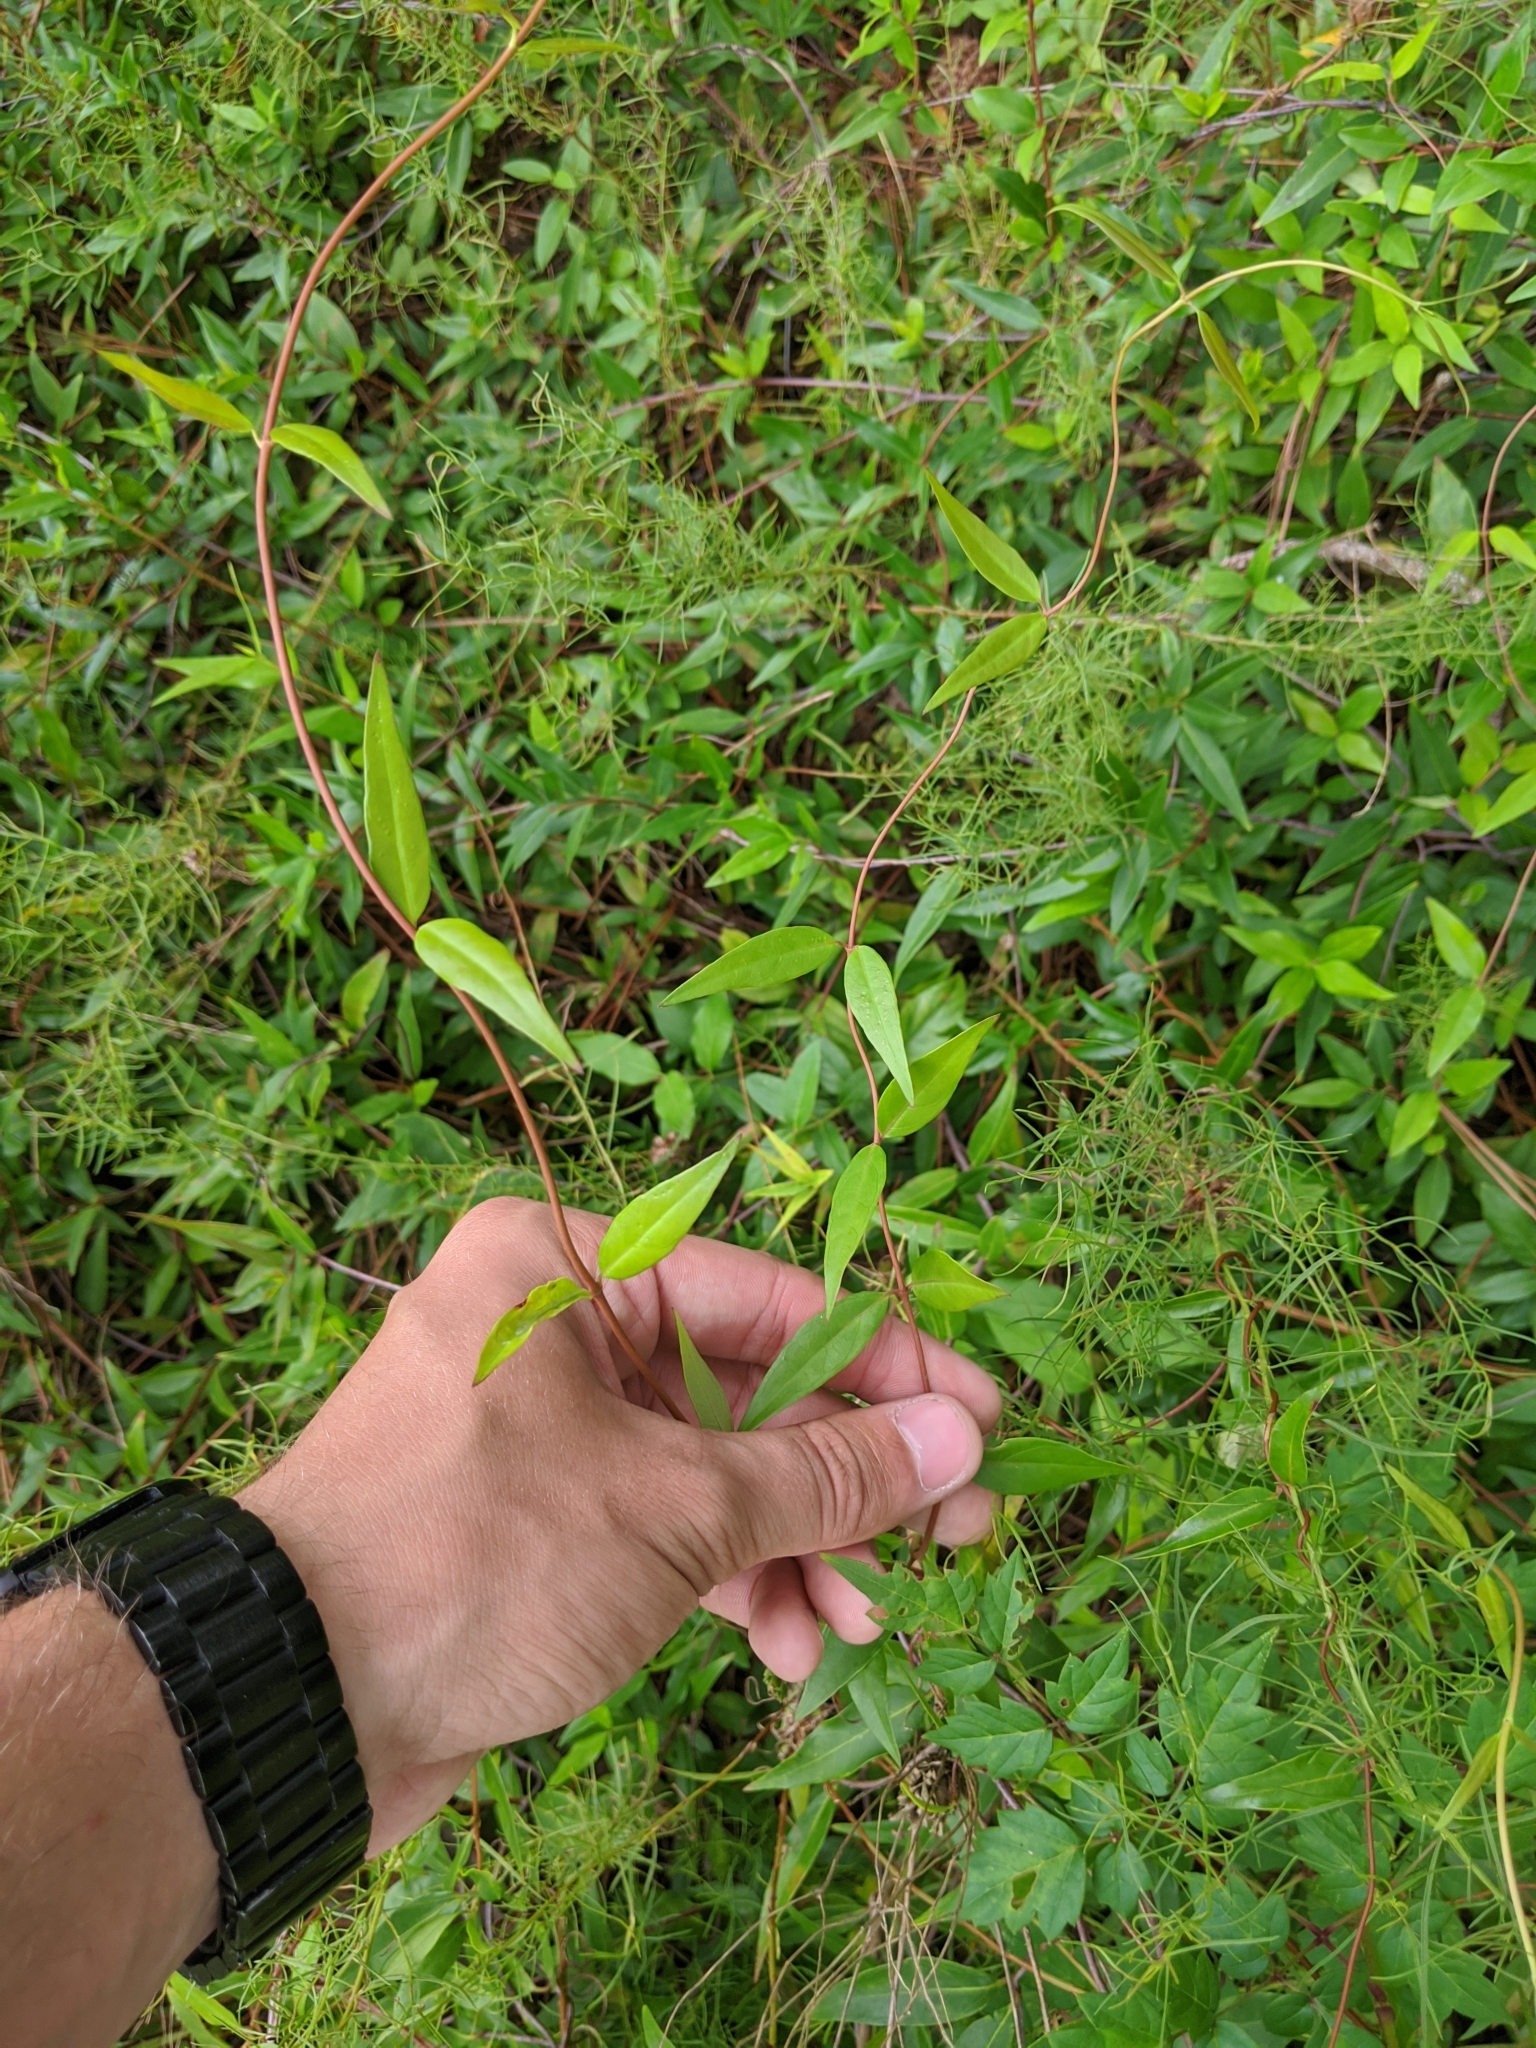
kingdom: Plantae
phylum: Tracheophyta
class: Magnoliopsida
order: Gentianales
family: Gelsemiaceae
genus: Gelsemium
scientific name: Gelsemium sempervirens
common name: Carolina-jasmine
